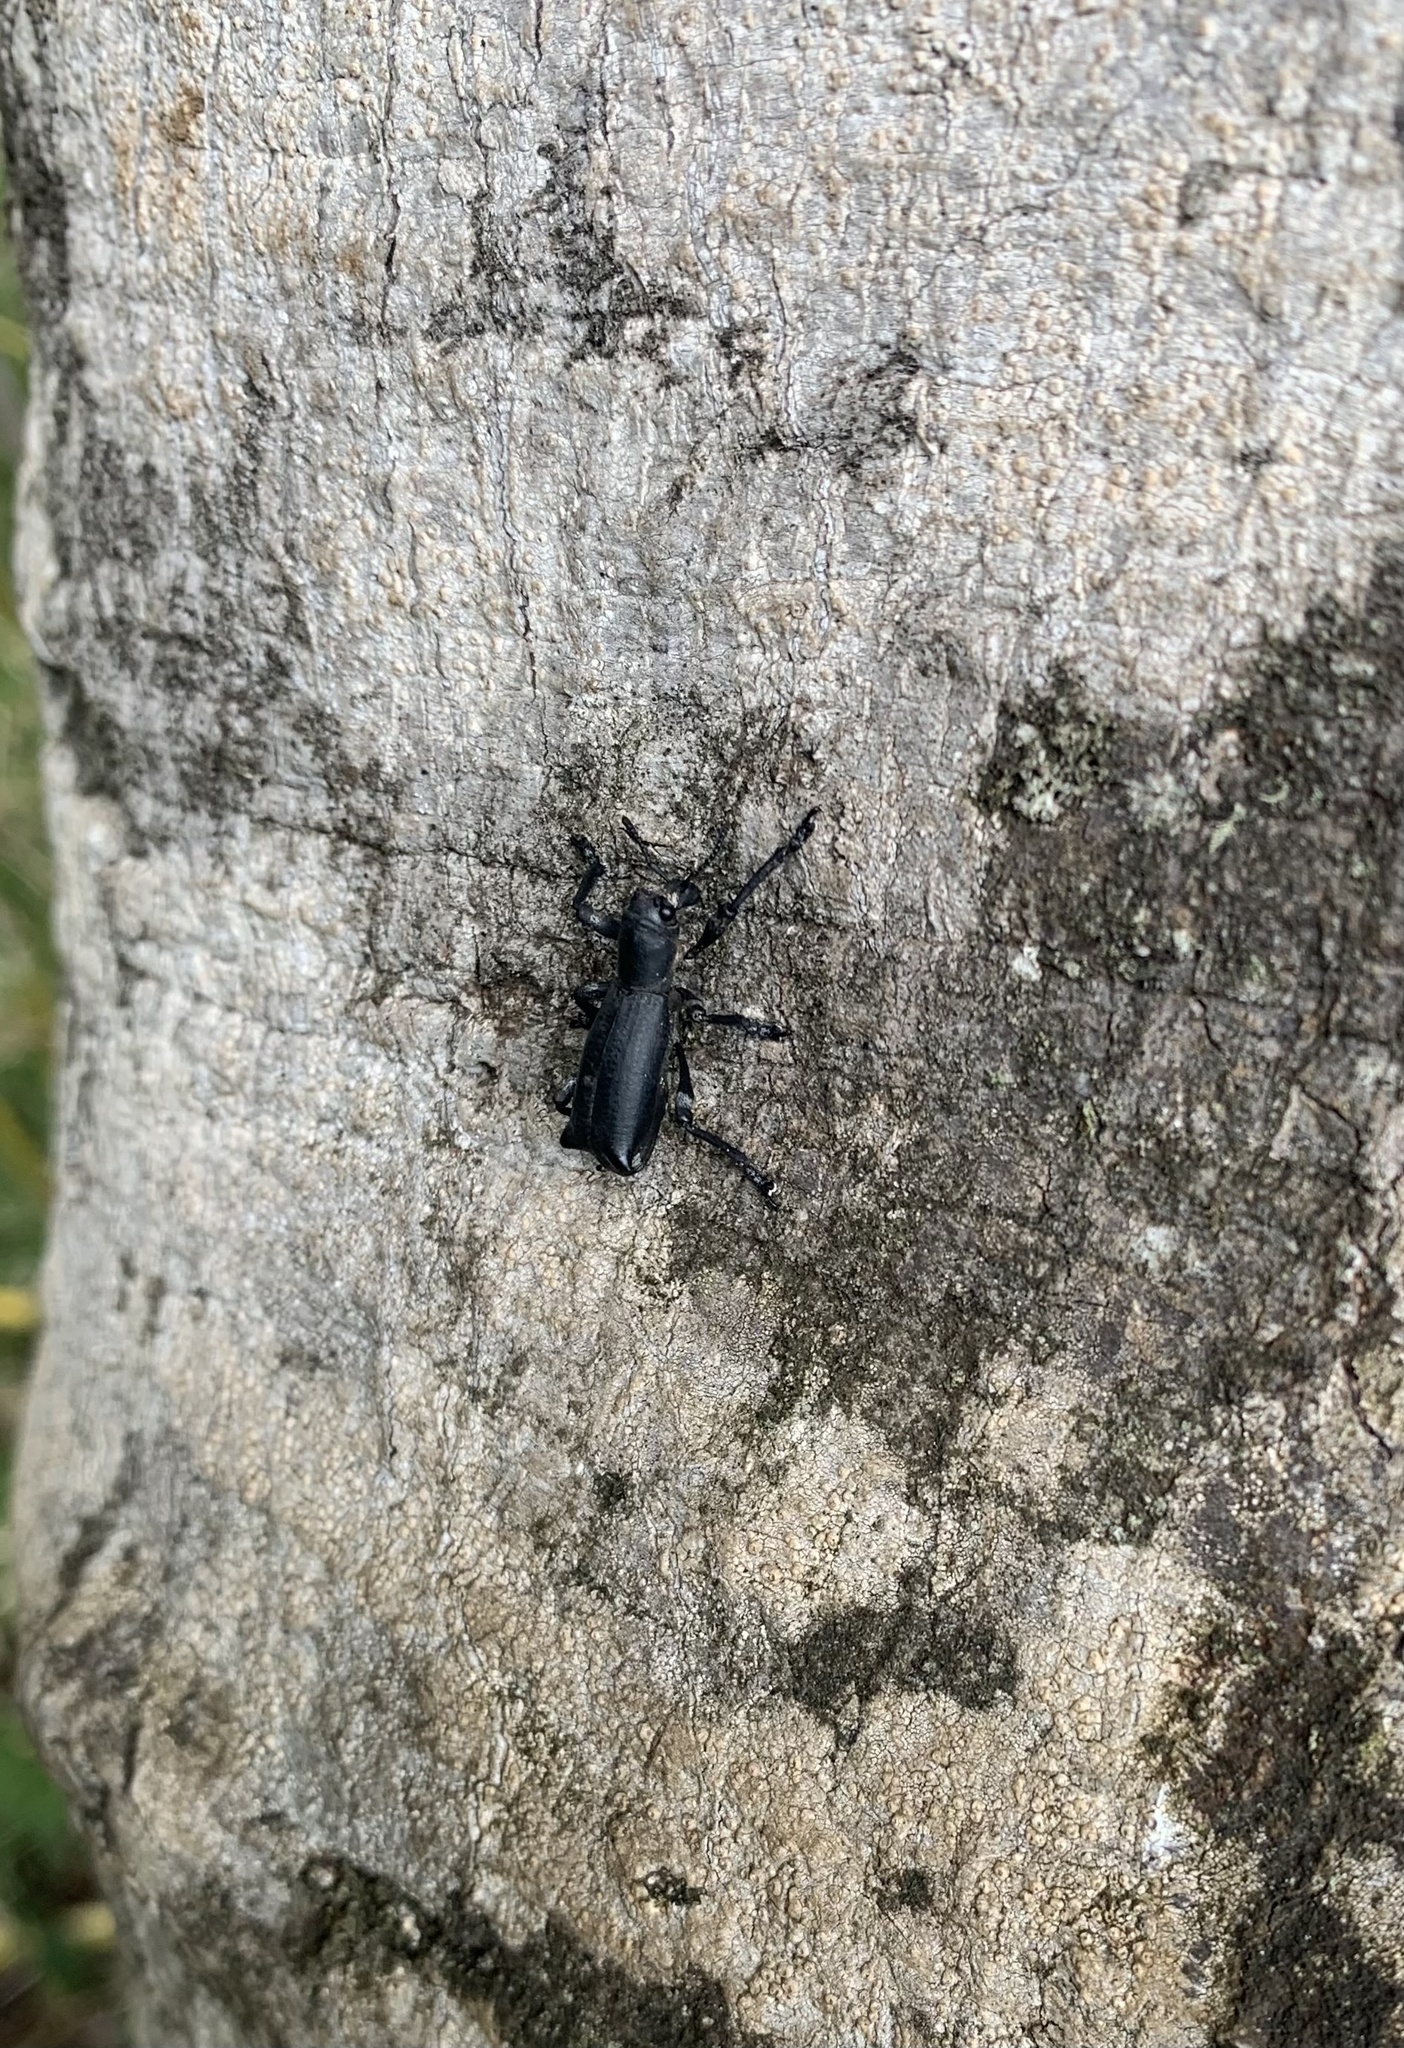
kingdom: Animalia
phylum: Arthropoda
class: Insecta
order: Coleoptera
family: Curculionidae
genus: Aegorhinus
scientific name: Aegorhinus
